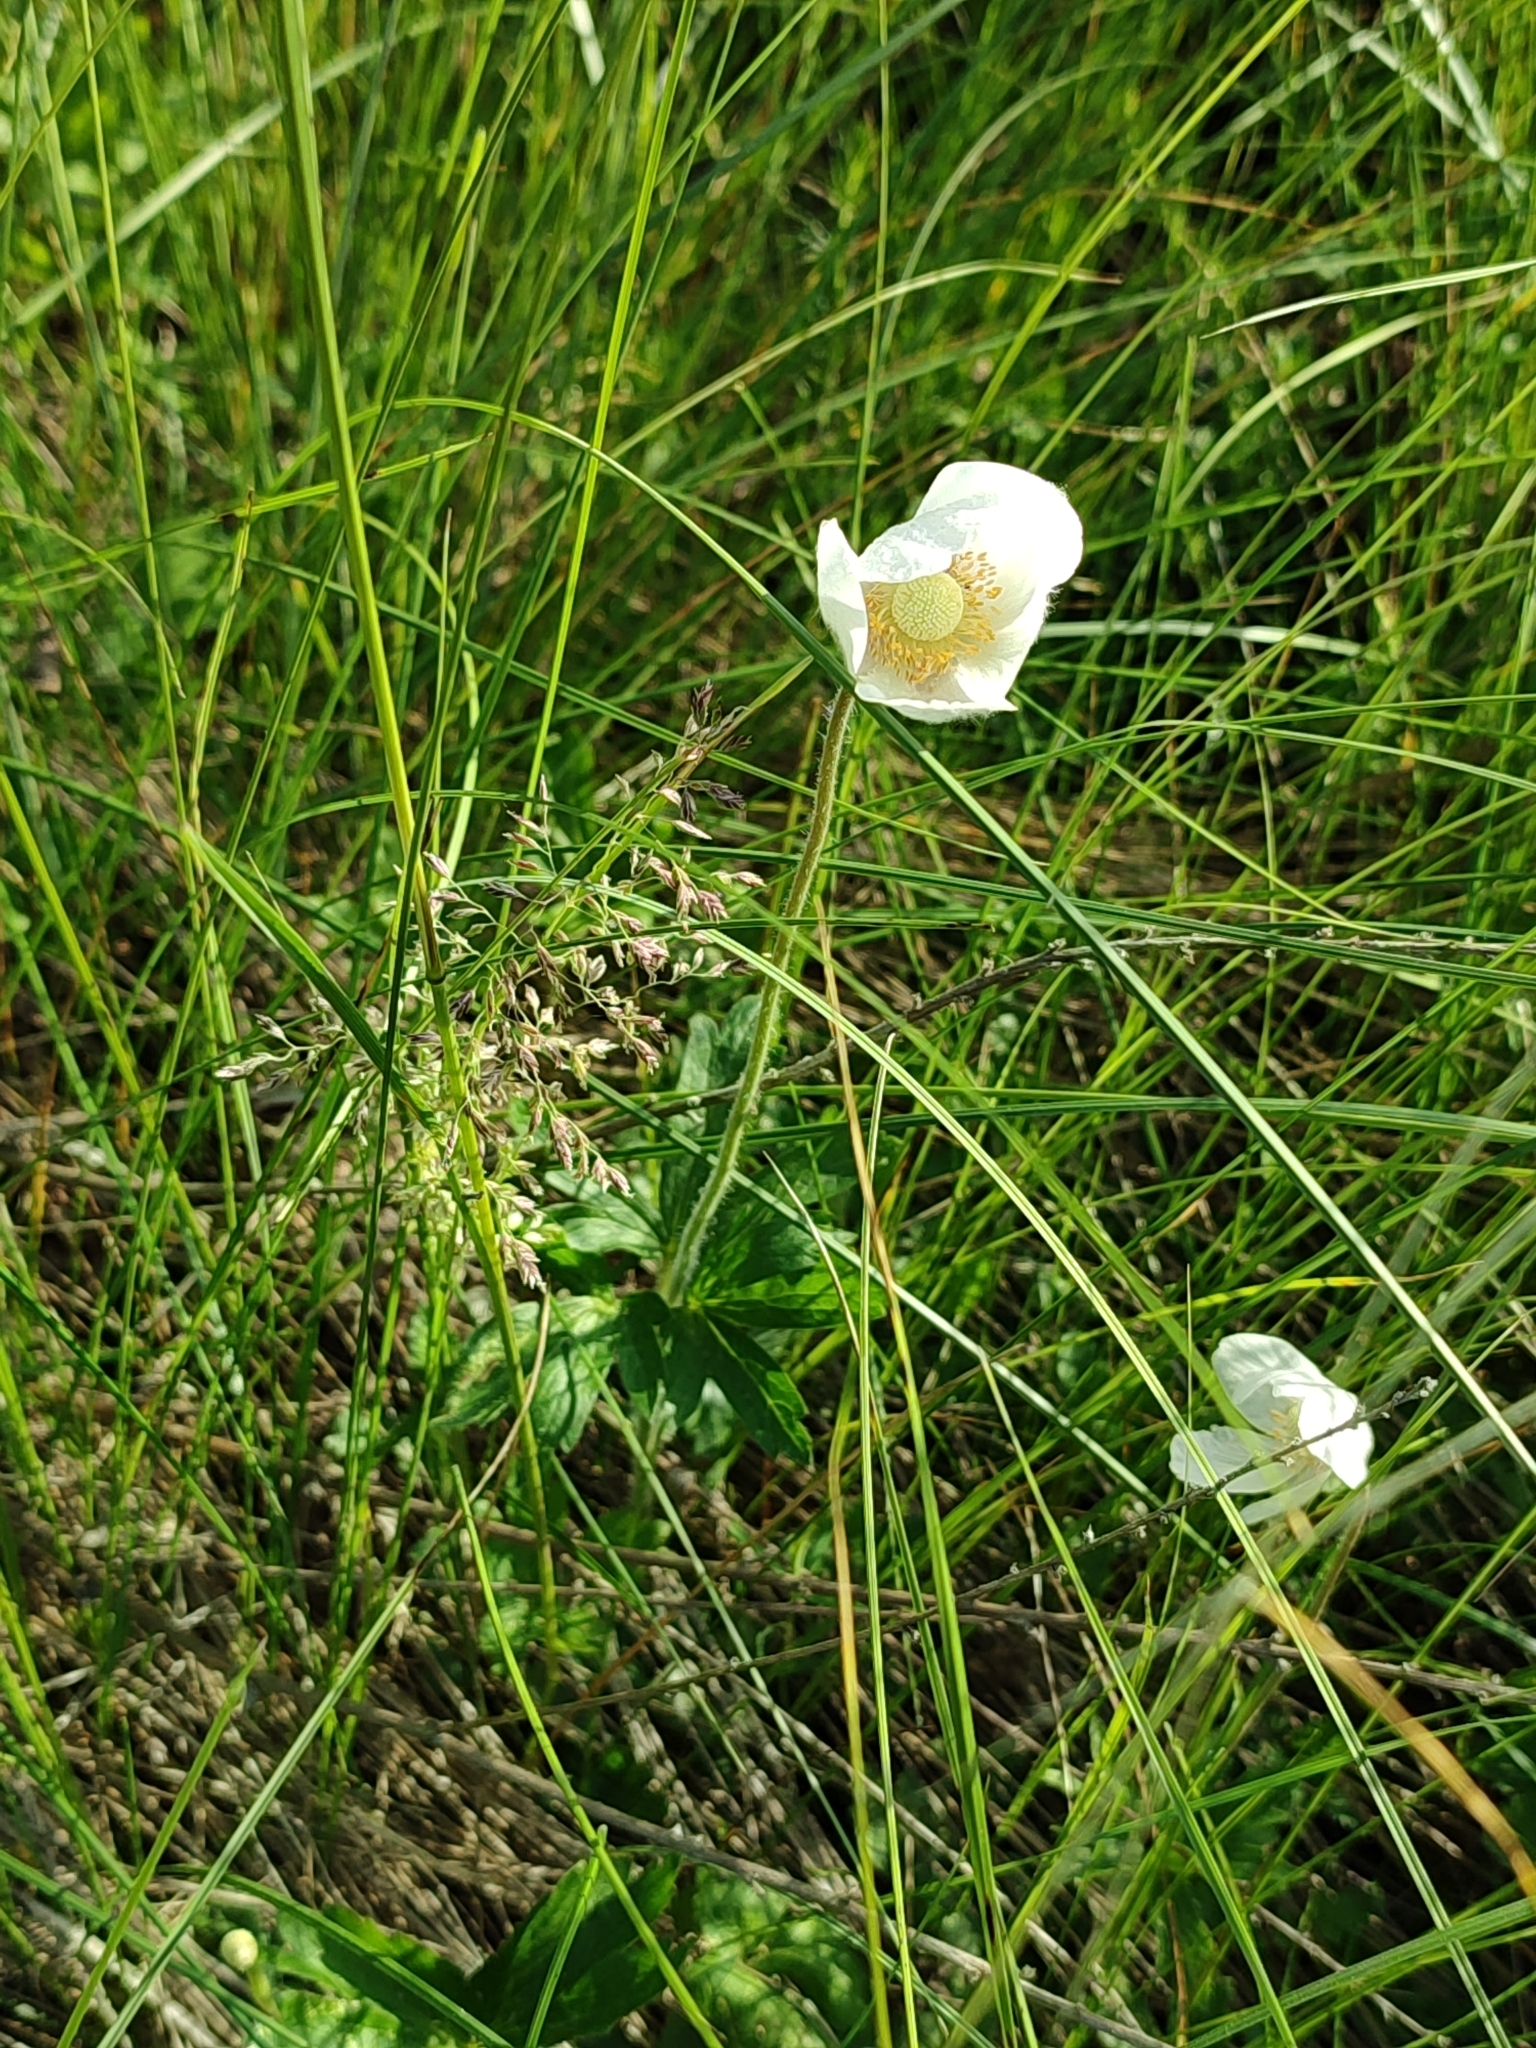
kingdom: Plantae
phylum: Tracheophyta
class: Magnoliopsida
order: Ranunculales
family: Ranunculaceae
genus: Anemone
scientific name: Anemone sylvestris
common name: Snowdrop anemone
